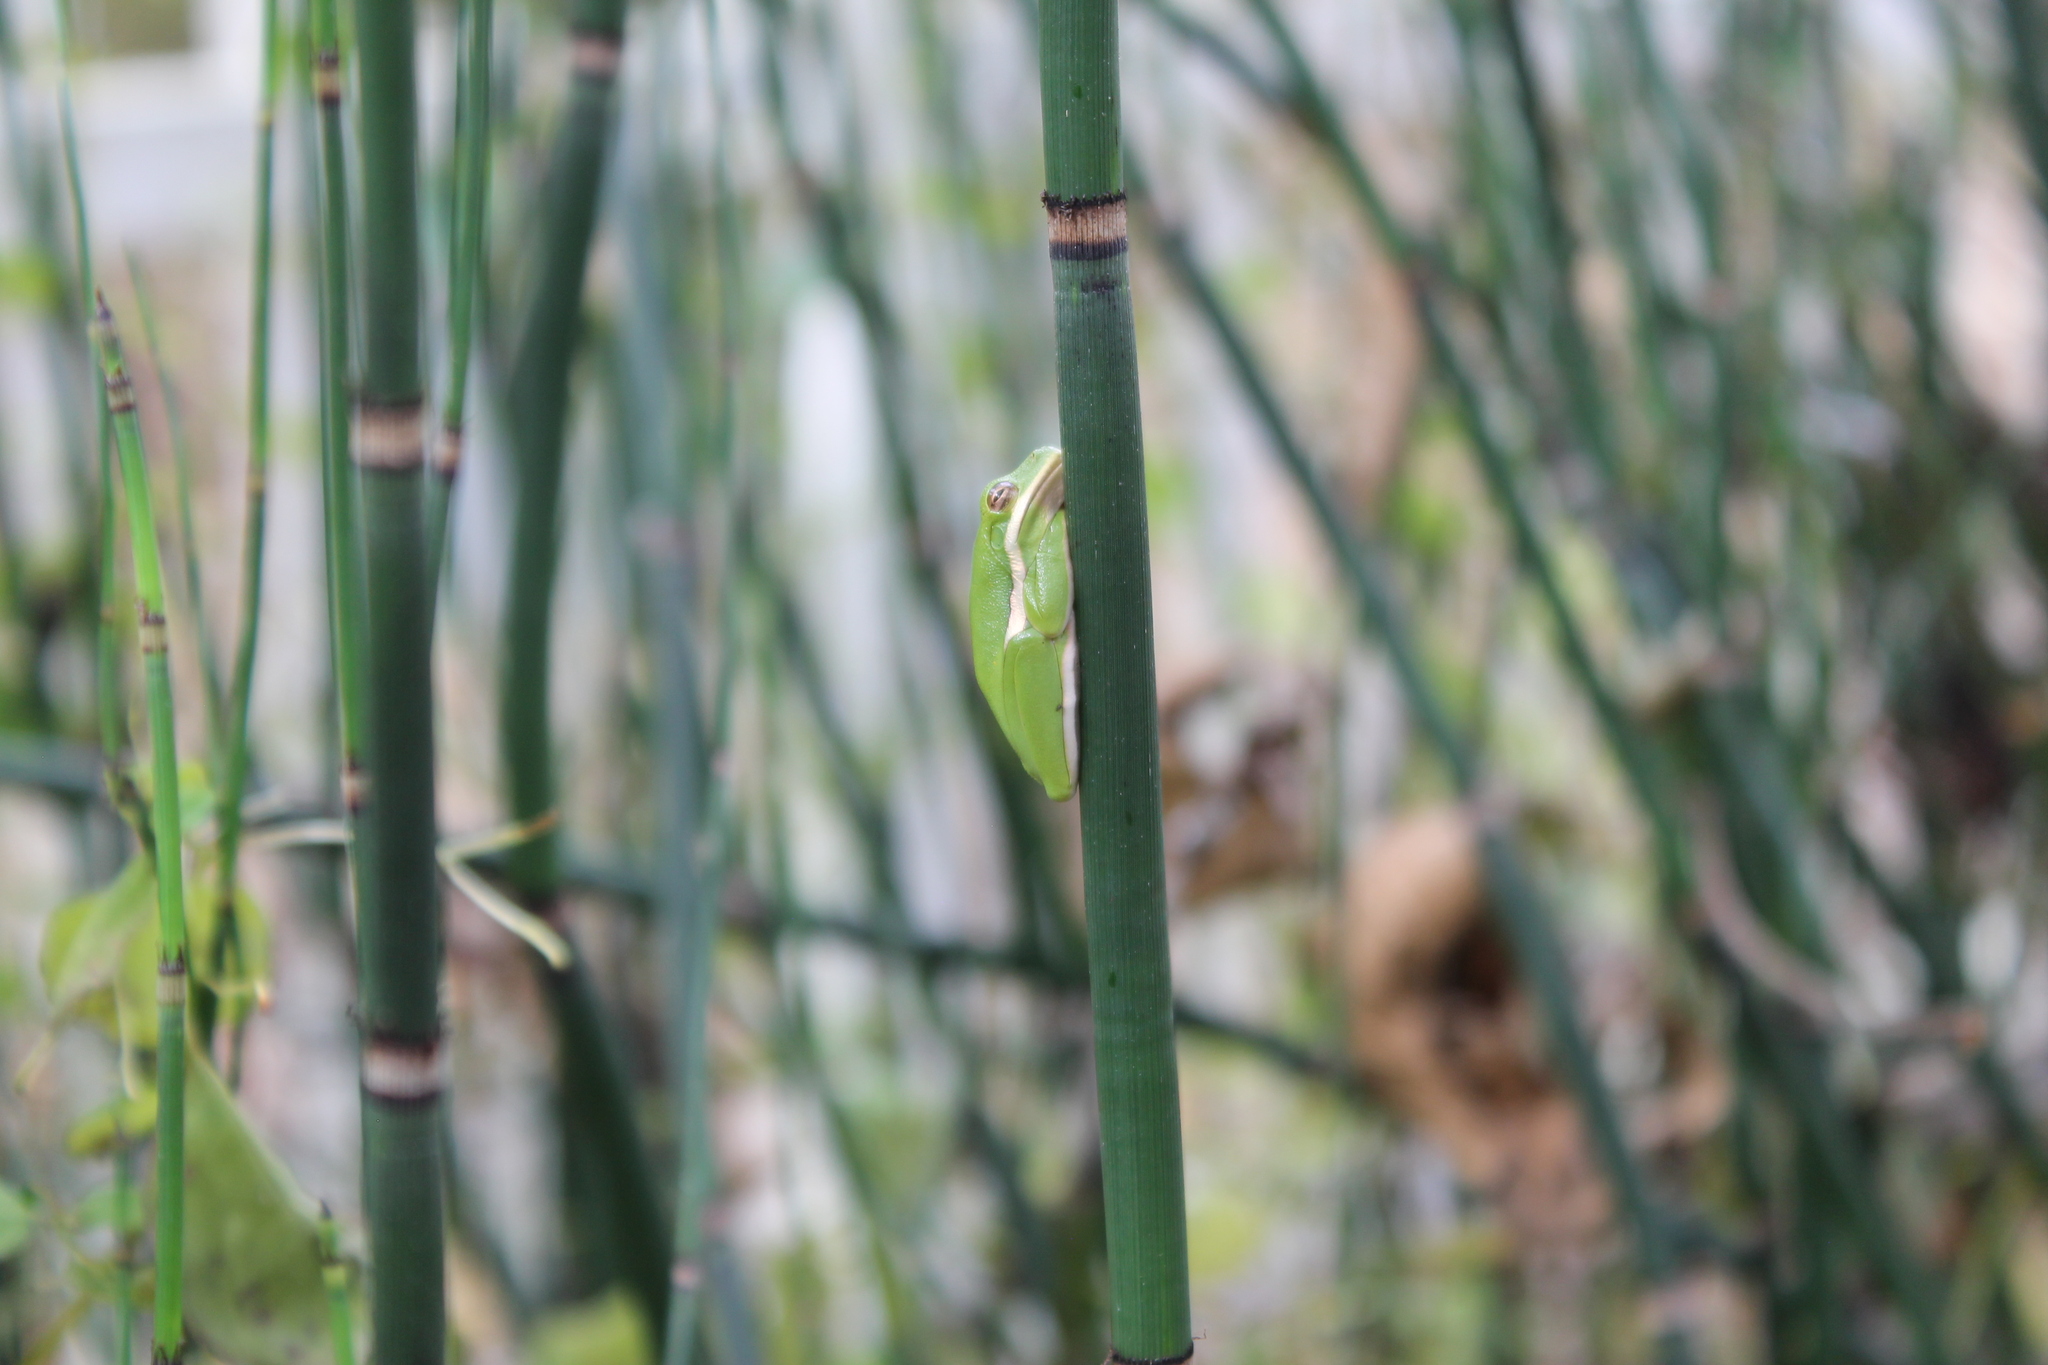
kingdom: Animalia
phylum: Chordata
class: Amphibia
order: Anura
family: Hylidae
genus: Dryophytes
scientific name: Dryophytes cinereus
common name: Green treefrog
